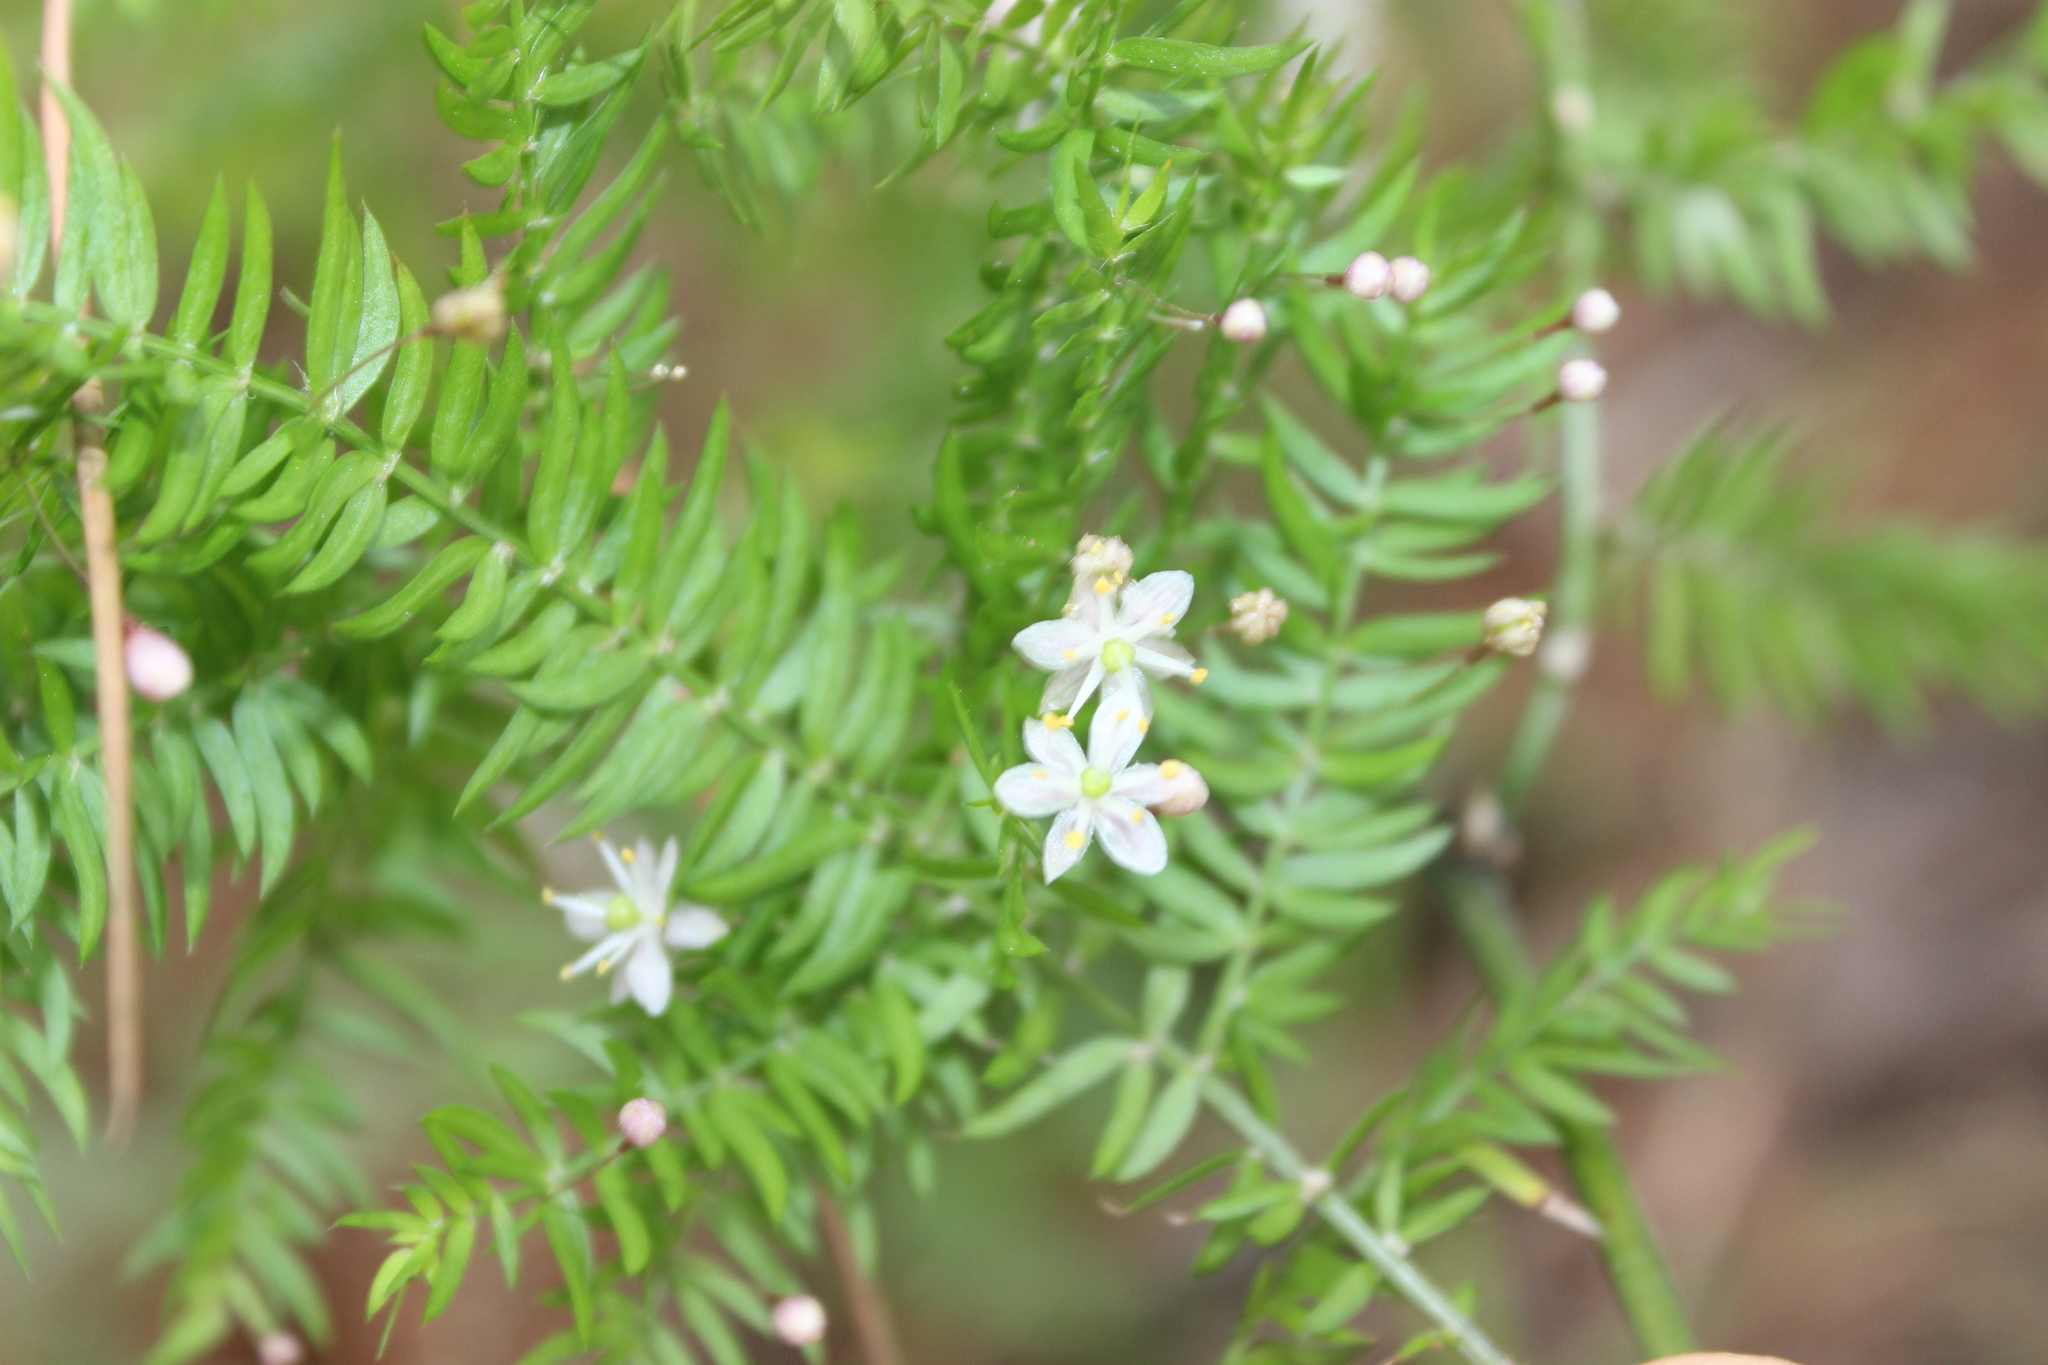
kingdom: Plantae
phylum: Tracheophyta
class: Liliopsida
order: Asparagales
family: Asparagaceae
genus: Asparagus
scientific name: Asparagus scandens
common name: Asparagus-fern
